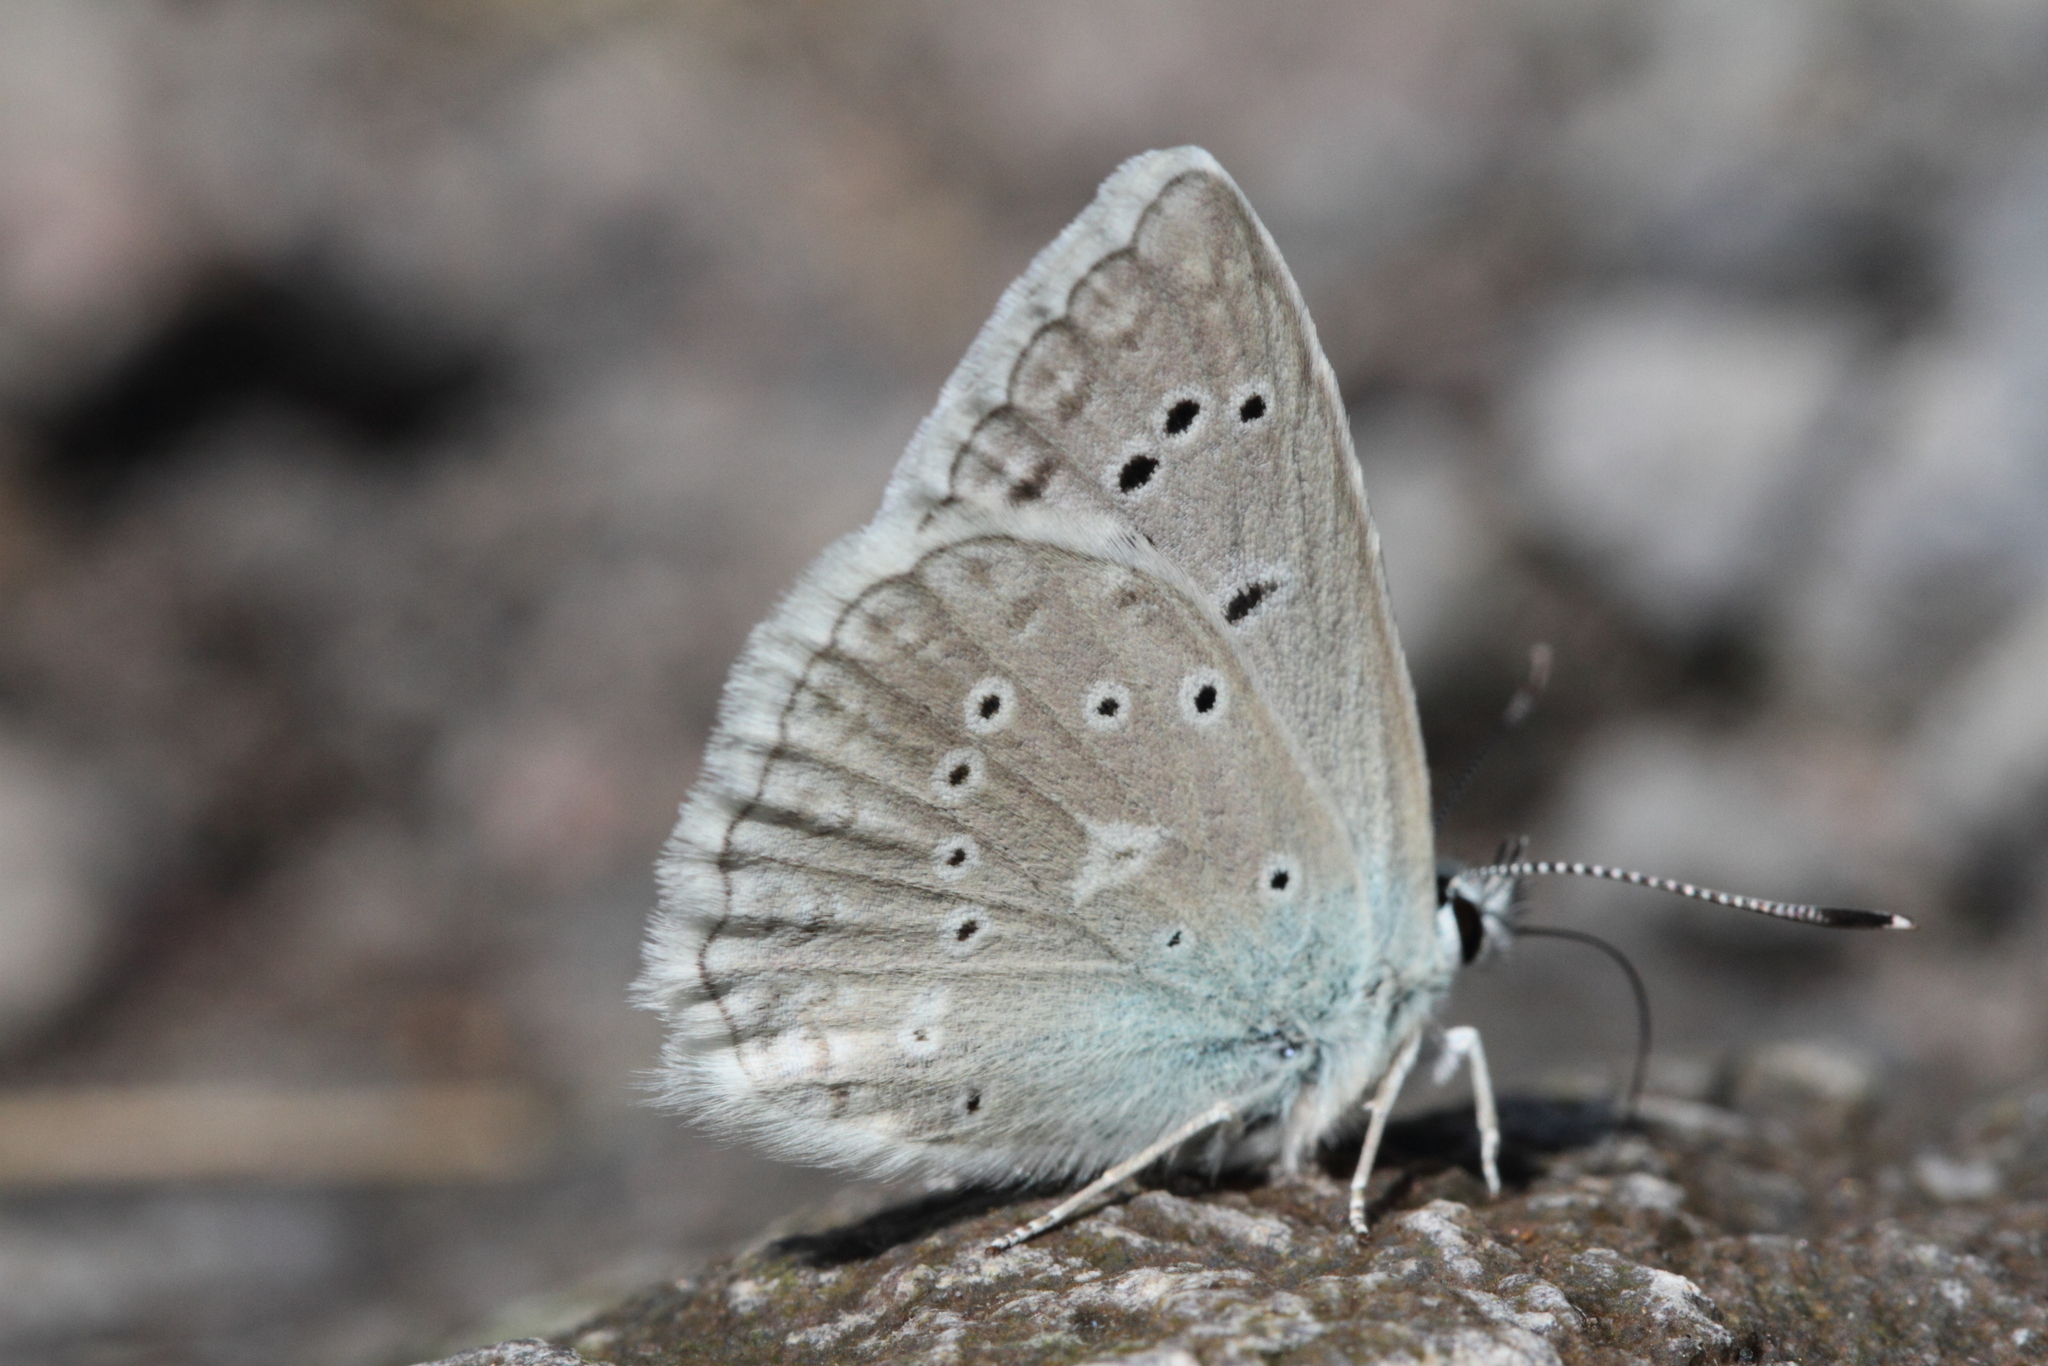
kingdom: Animalia
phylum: Arthropoda
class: Insecta
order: Lepidoptera
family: Lycaenidae
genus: Polyommatus
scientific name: Polyommatus daphnis
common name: Meleager's blue
